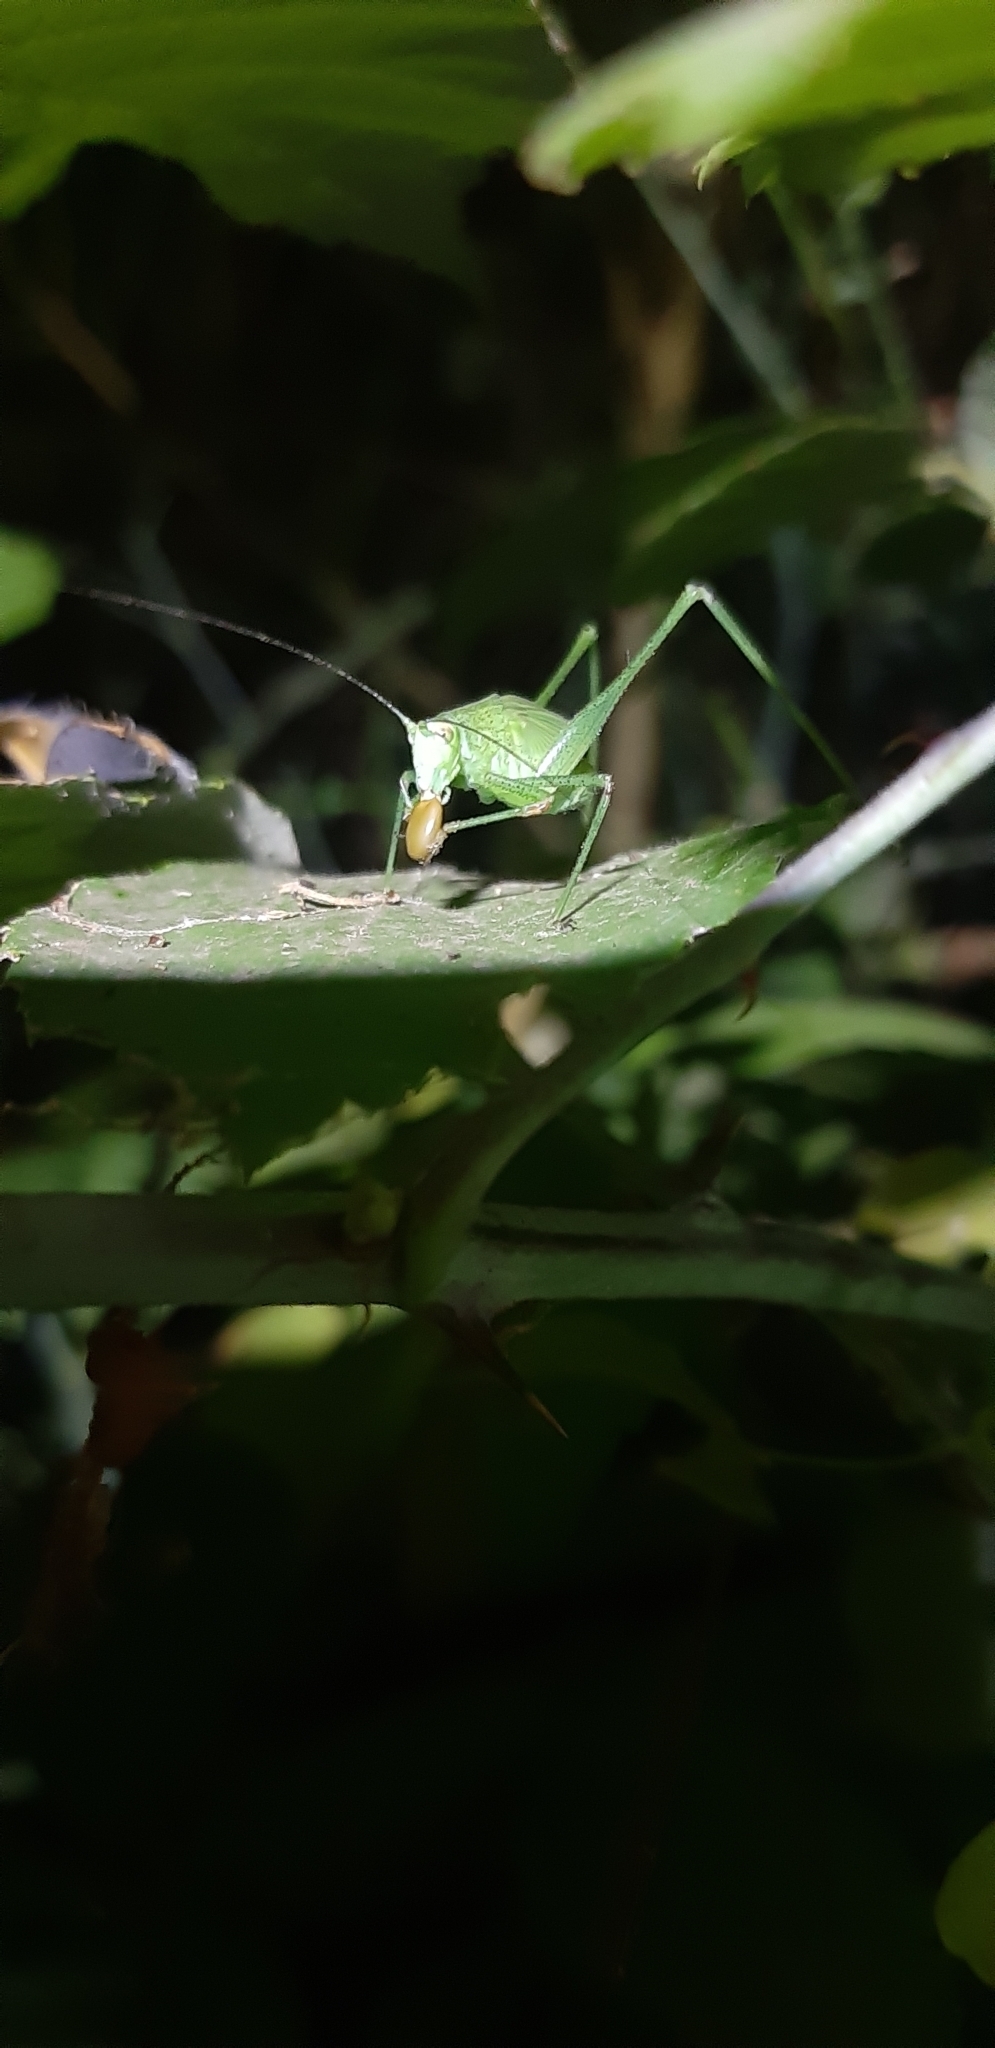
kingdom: Animalia
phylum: Arthropoda
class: Insecta
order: Orthoptera
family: Tettigoniidae
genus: Phaneroptera
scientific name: Phaneroptera nana
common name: Southern sickle bush-cricket
